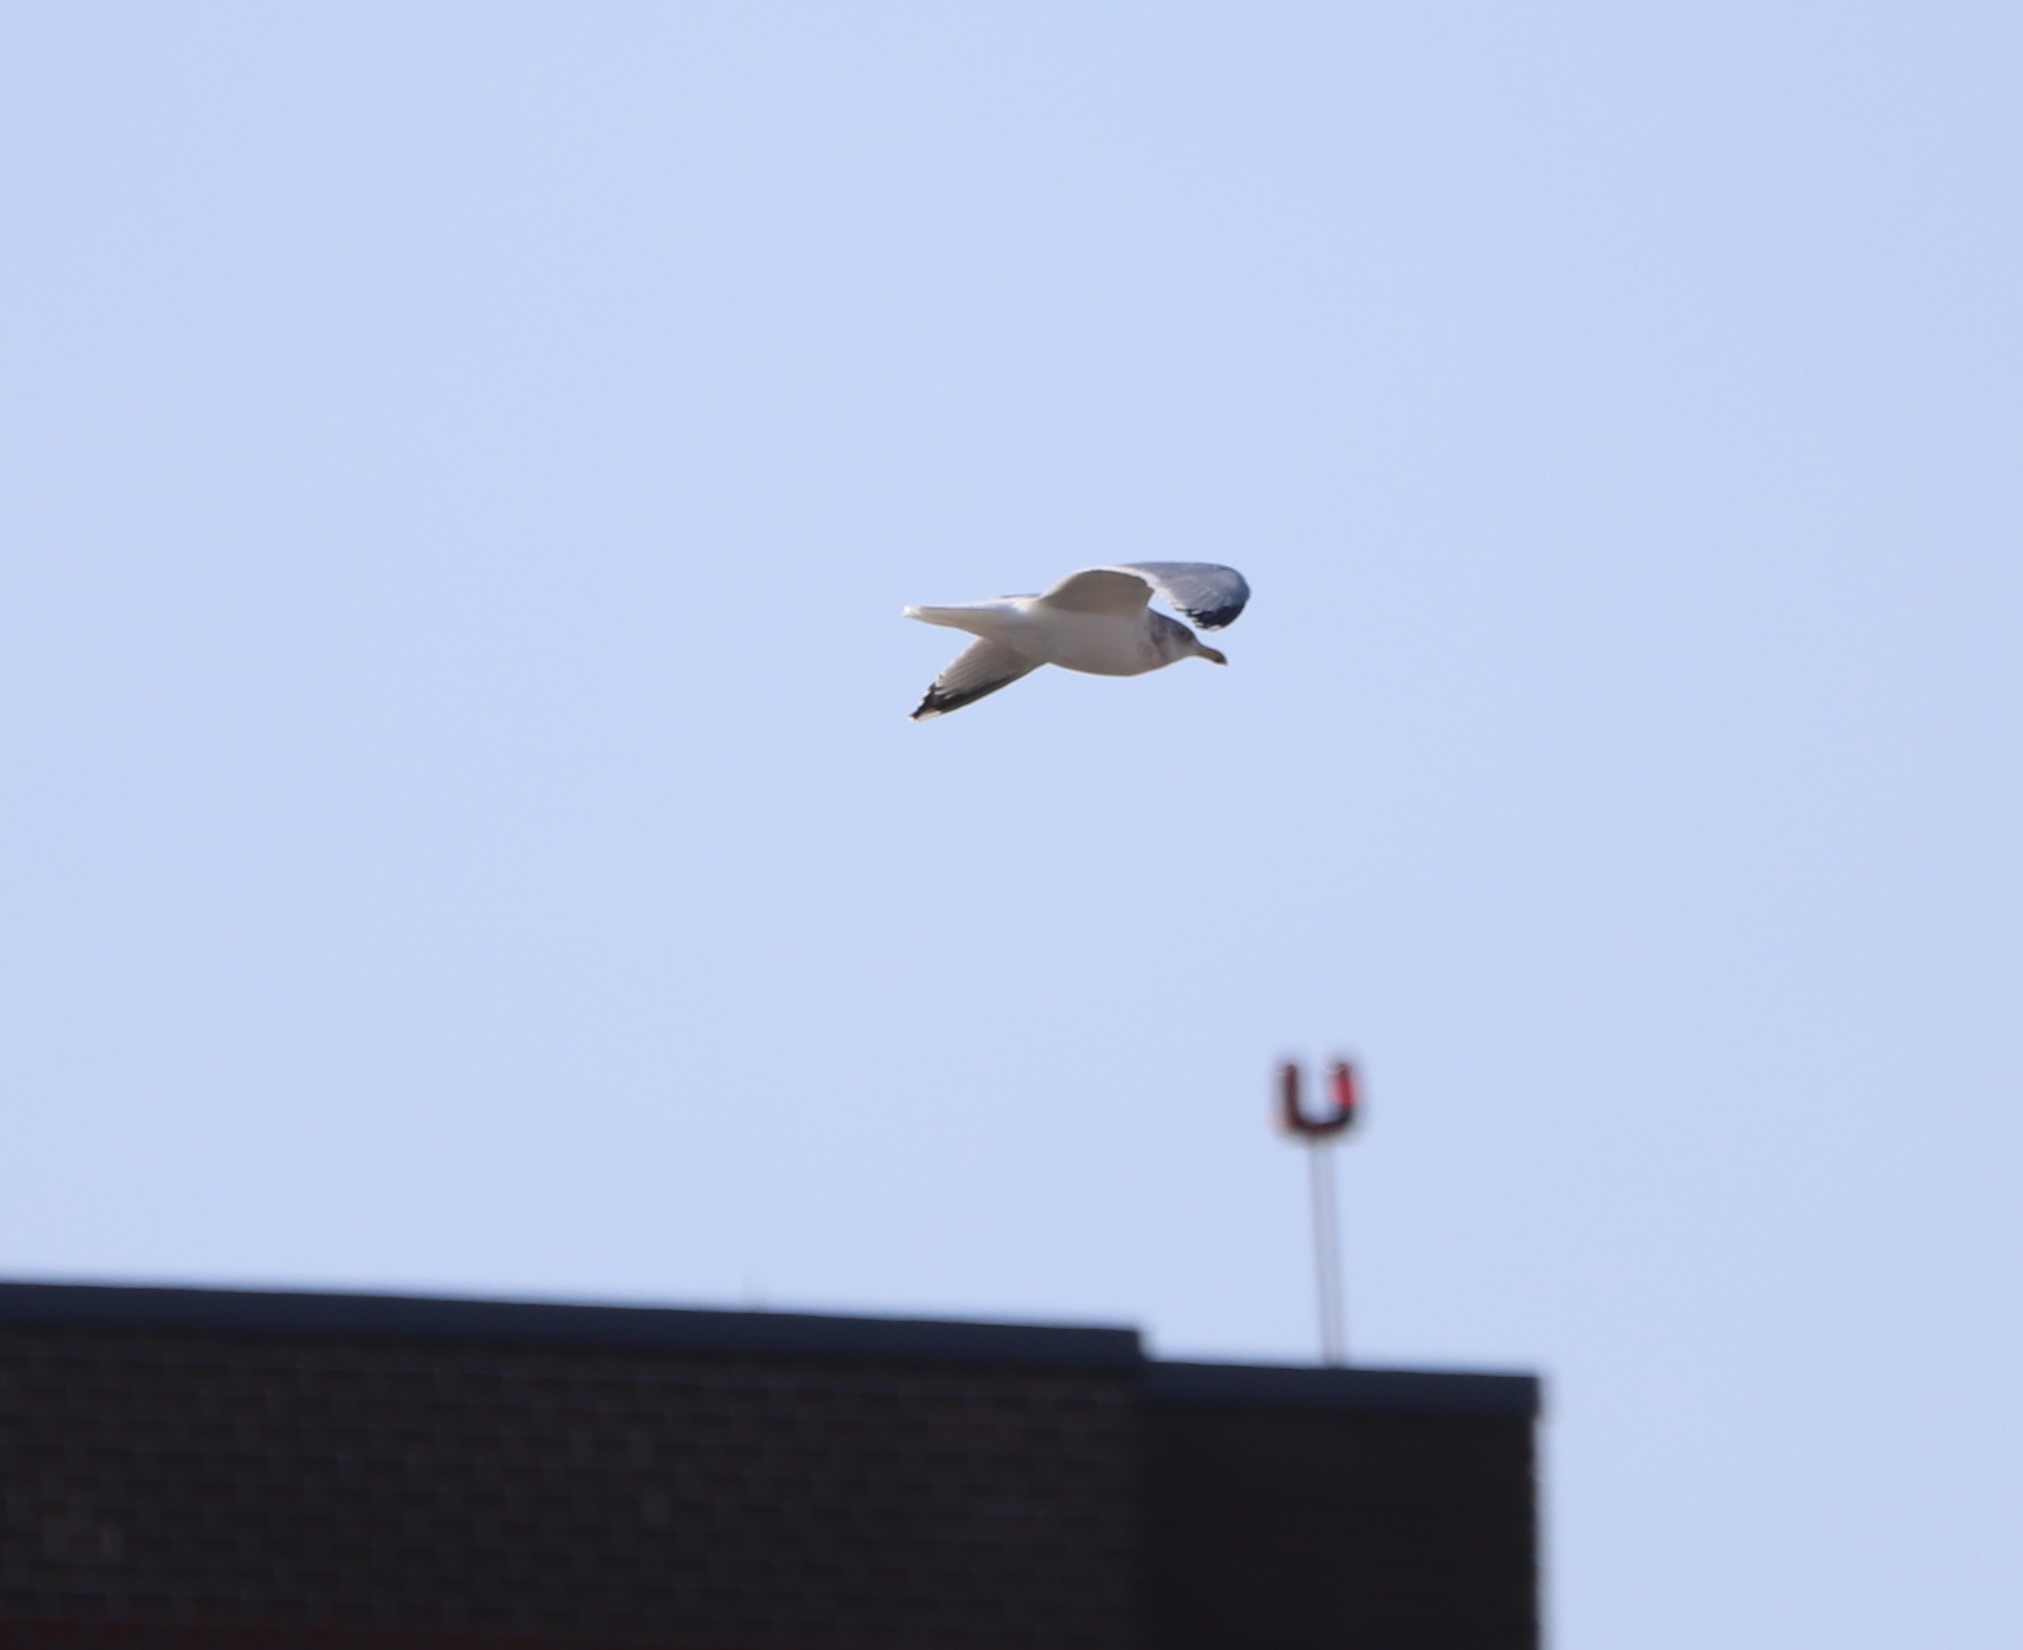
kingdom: Animalia
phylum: Chordata
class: Aves
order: Charadriiformes
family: Laridae
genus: Larus
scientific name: Larus argentatus
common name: Herring gull
